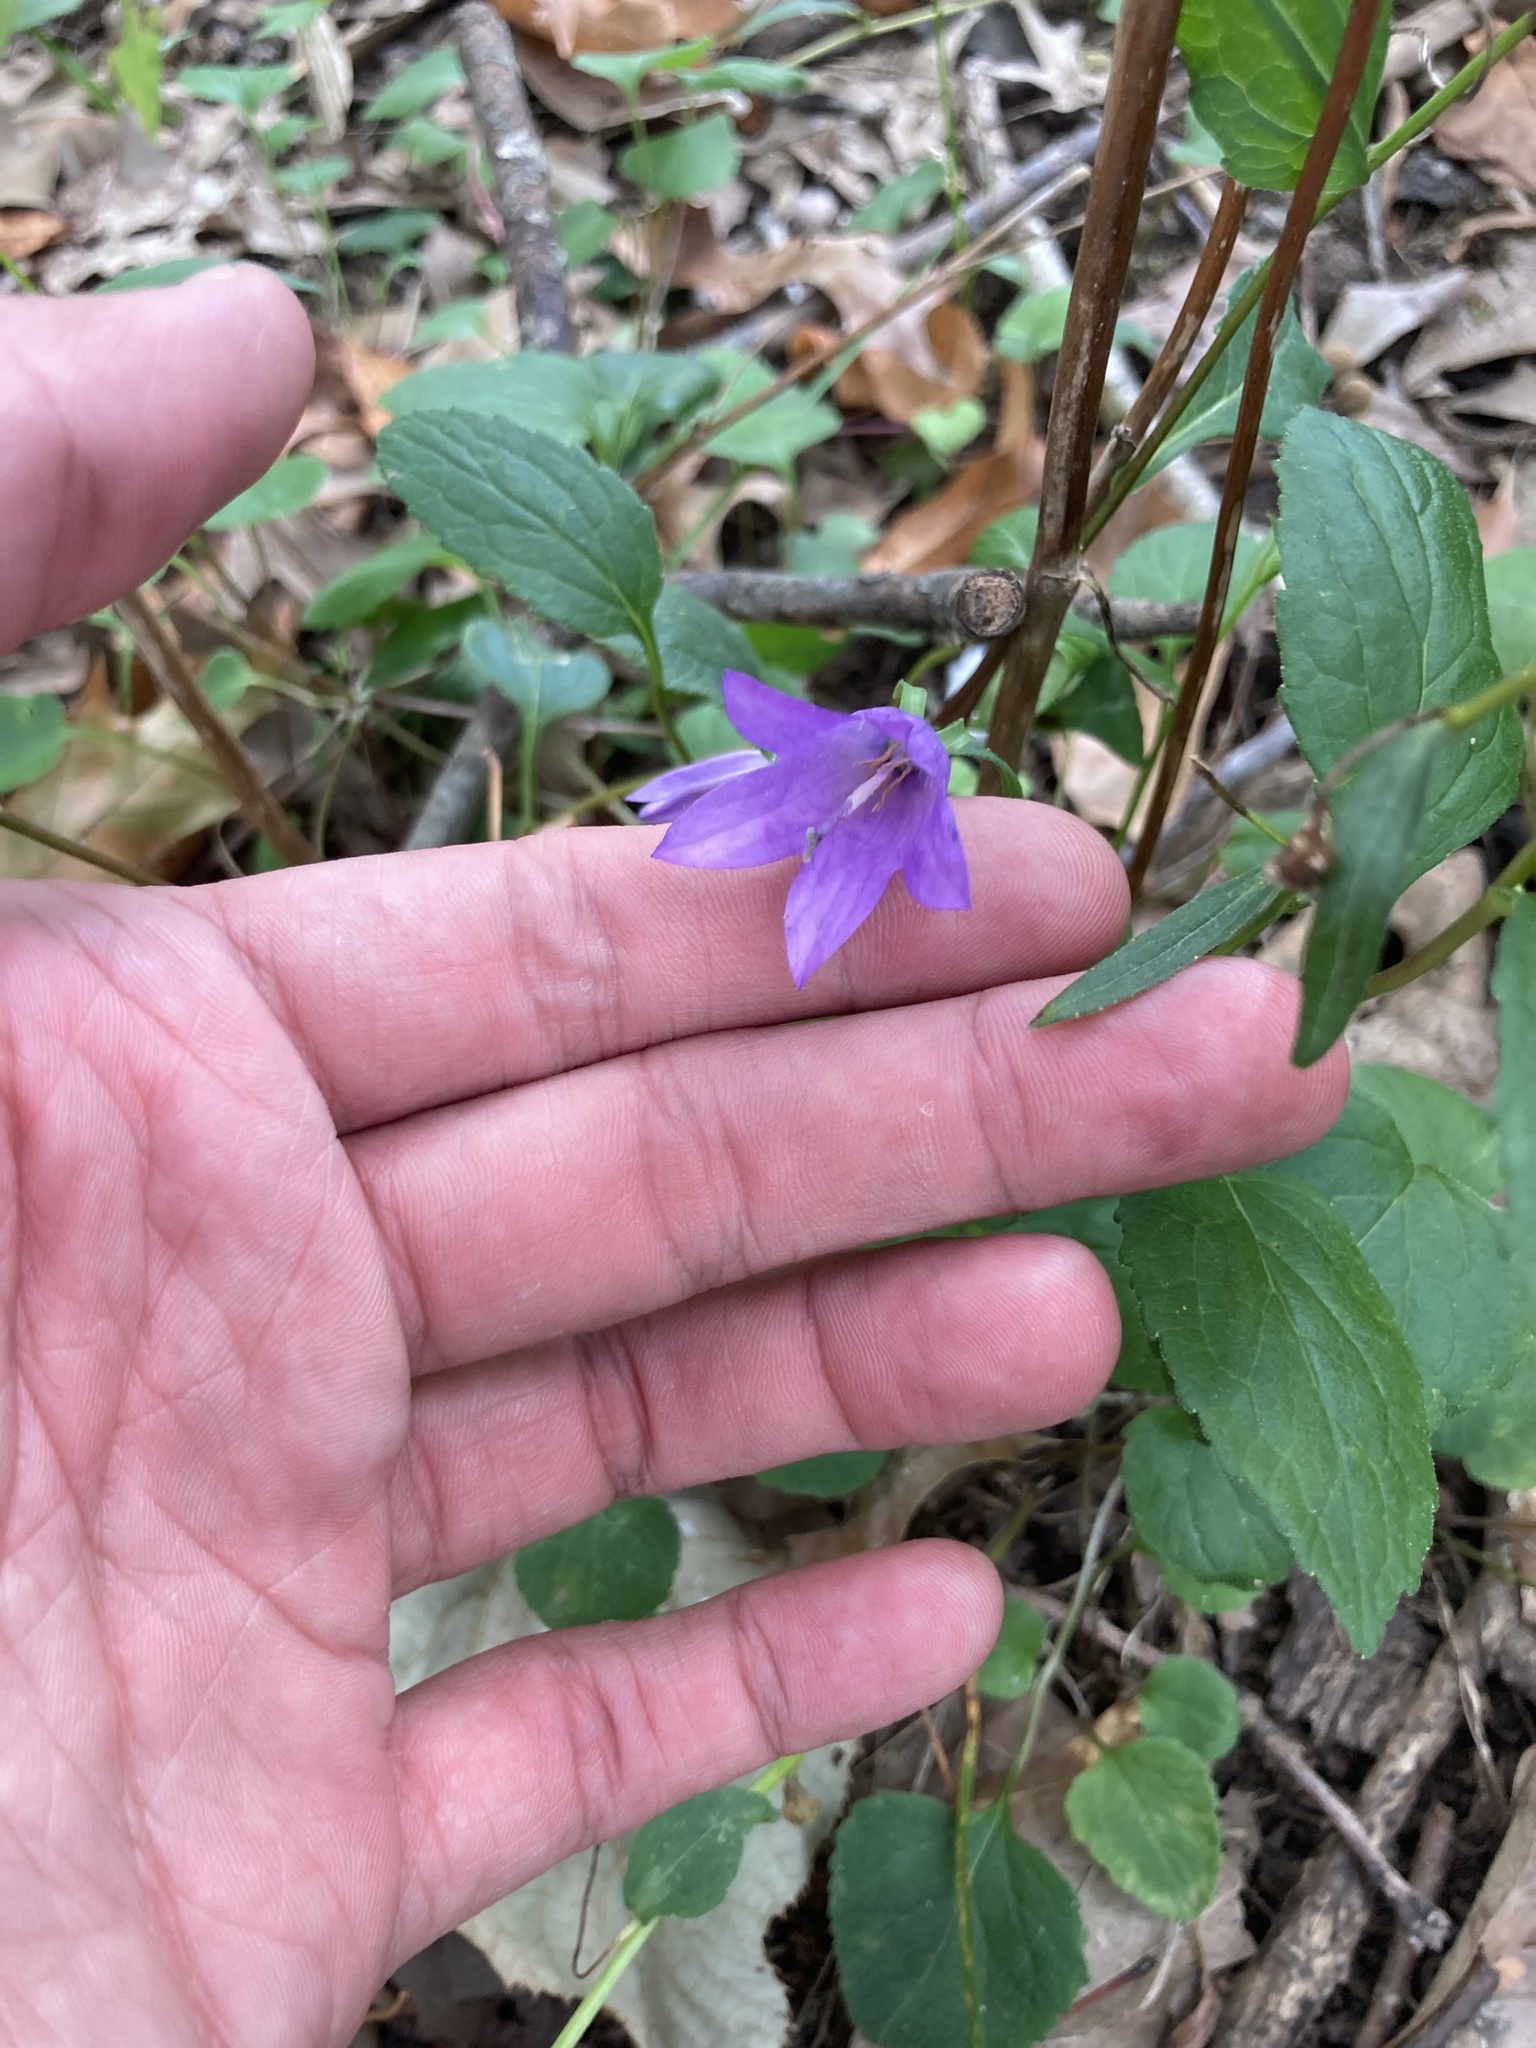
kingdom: Plantae
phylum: Tracheophyta
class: Magnoliopsida
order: Asterales
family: Campanulaceae
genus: Campanula
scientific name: Campanula rapunculoides
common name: Creeping bellflower
